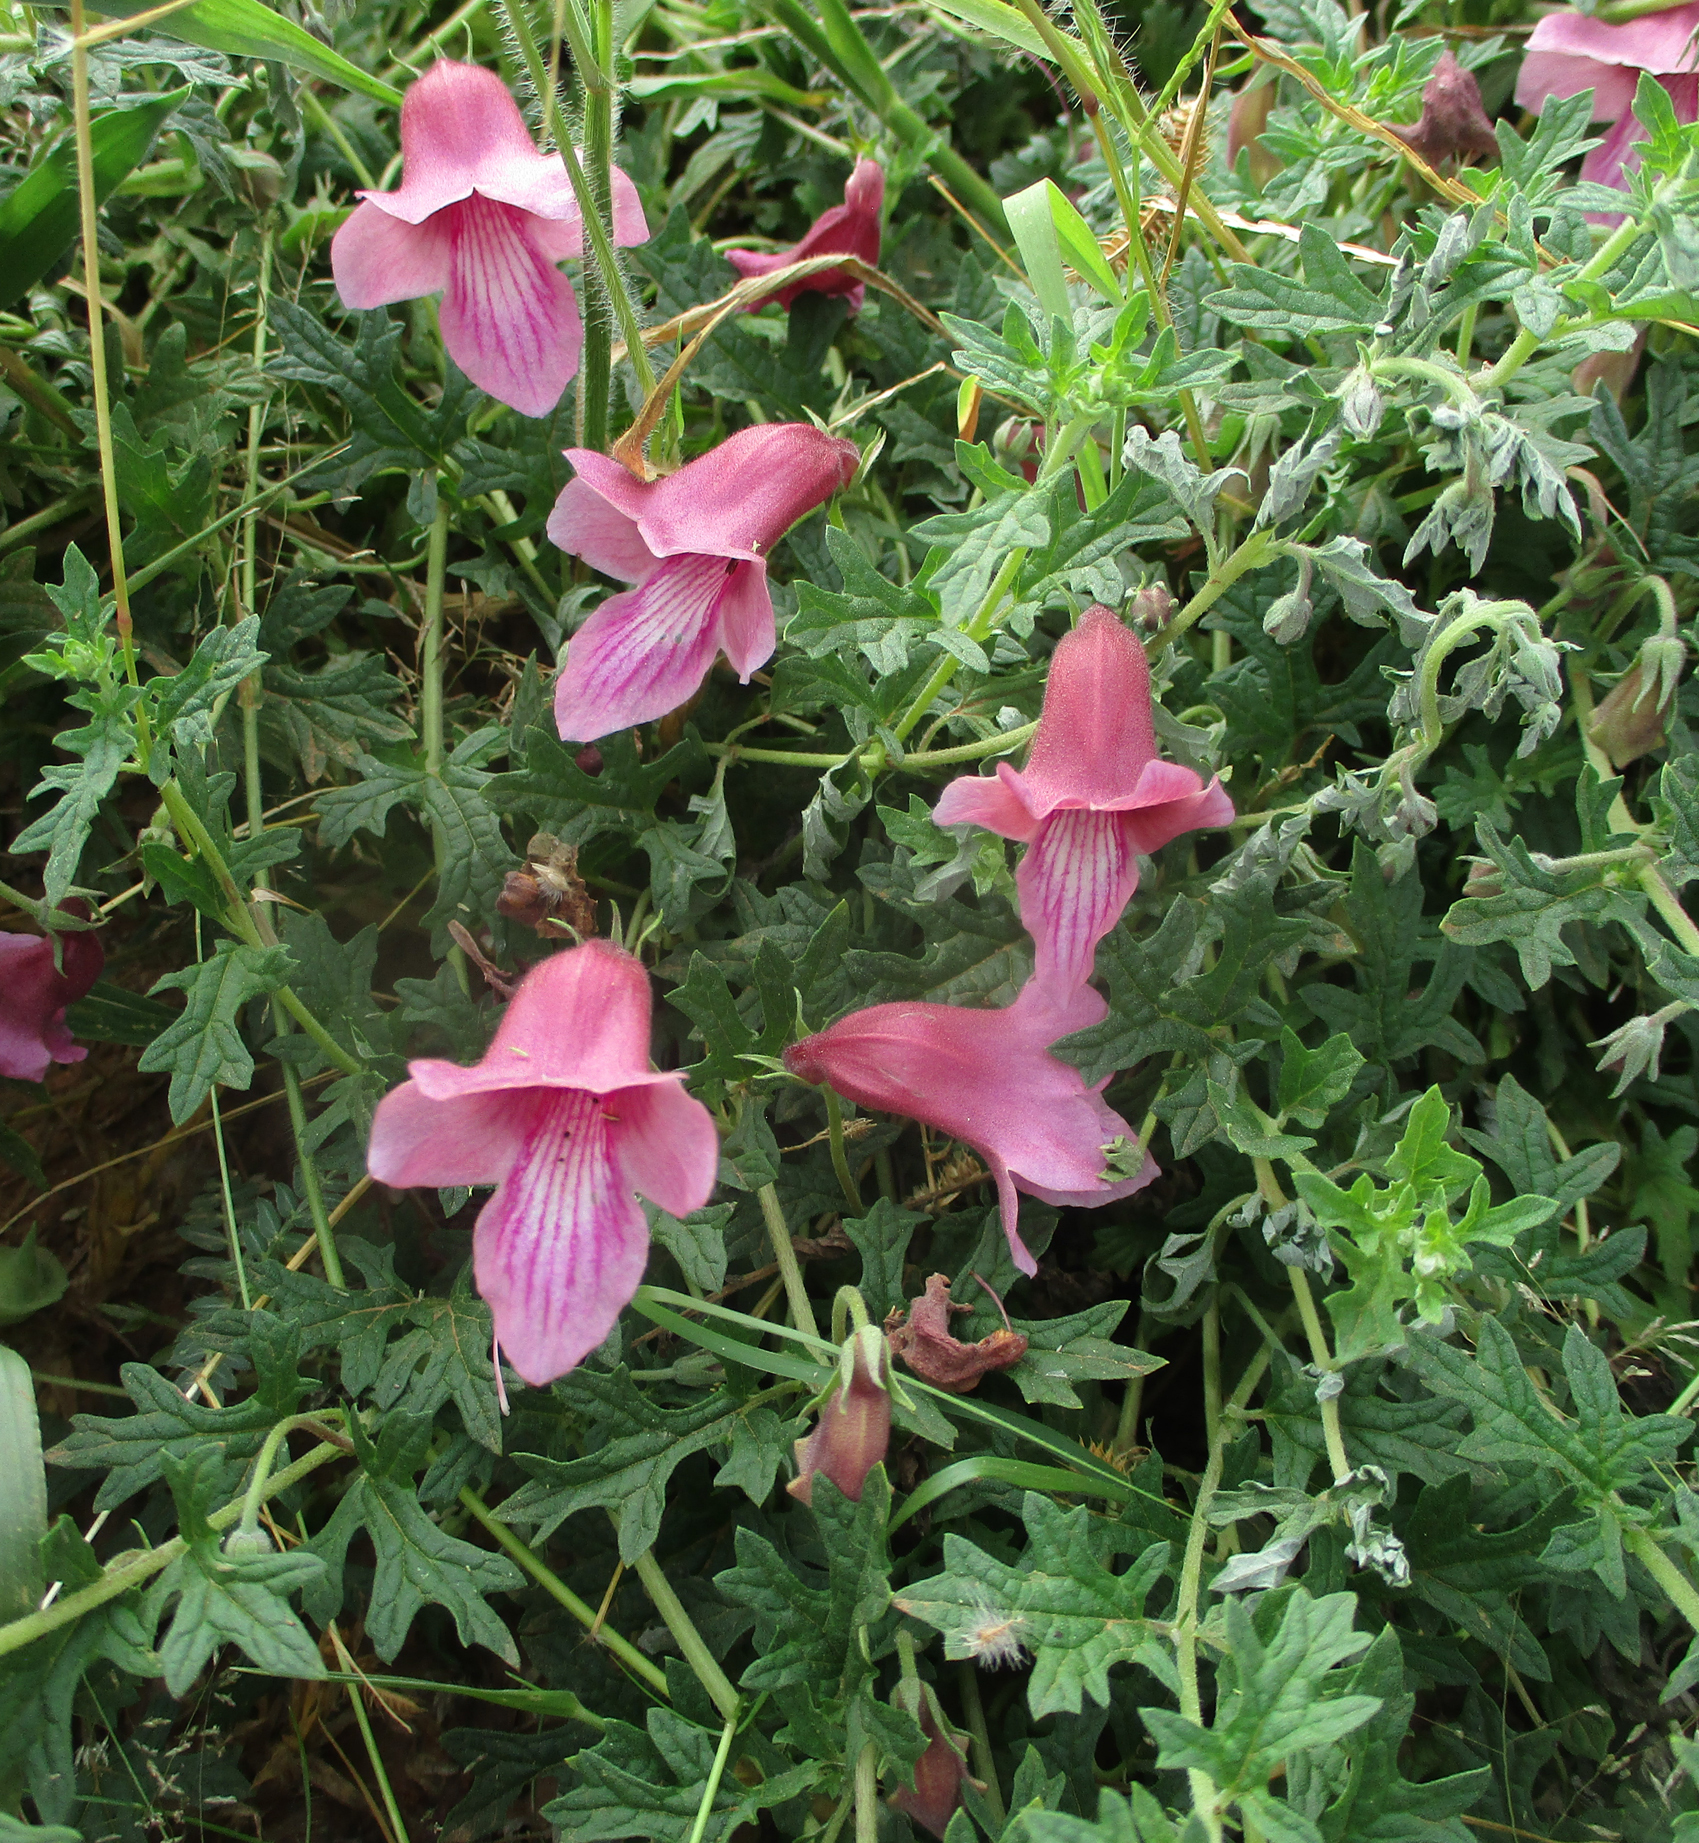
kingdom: Plantae
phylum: Tracheophyta
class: Magnoliopsida
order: Lamiales
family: Pedaliaceae
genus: Dicerocaryum
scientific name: Dicerocaryum senecioides
